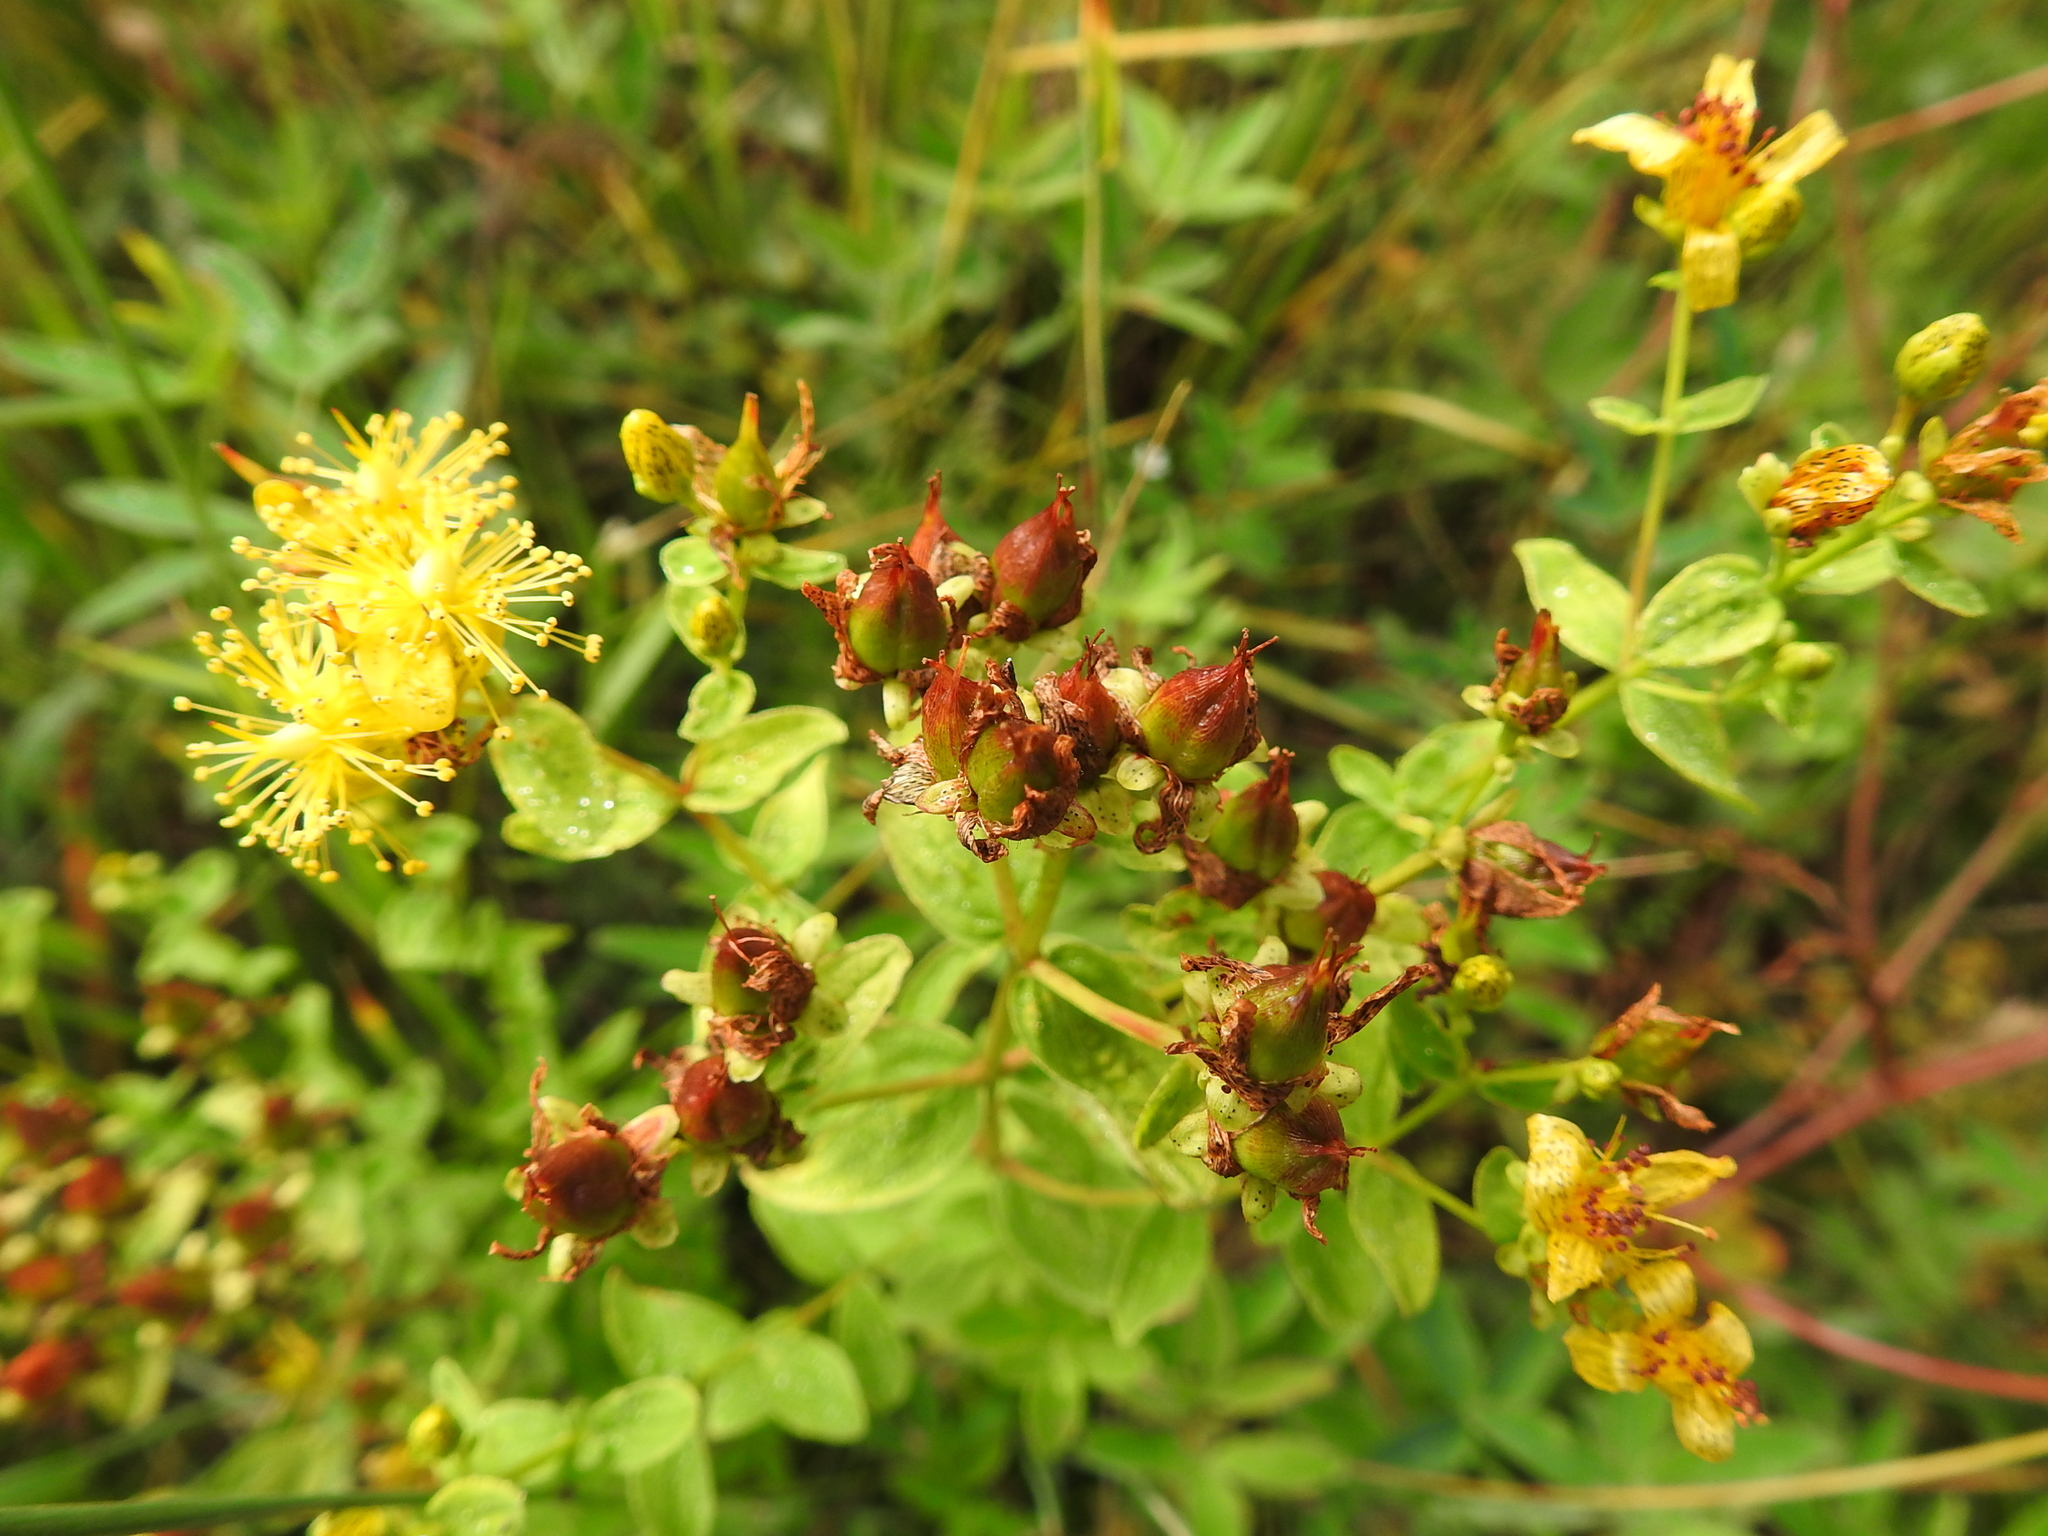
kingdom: Plantae
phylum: Tracheophyta
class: Magnoliopsida
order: Malpighiales
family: Hypericaceae
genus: Hypericum
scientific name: Hypericum maculatum
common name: Imperforate st. john's-wort
